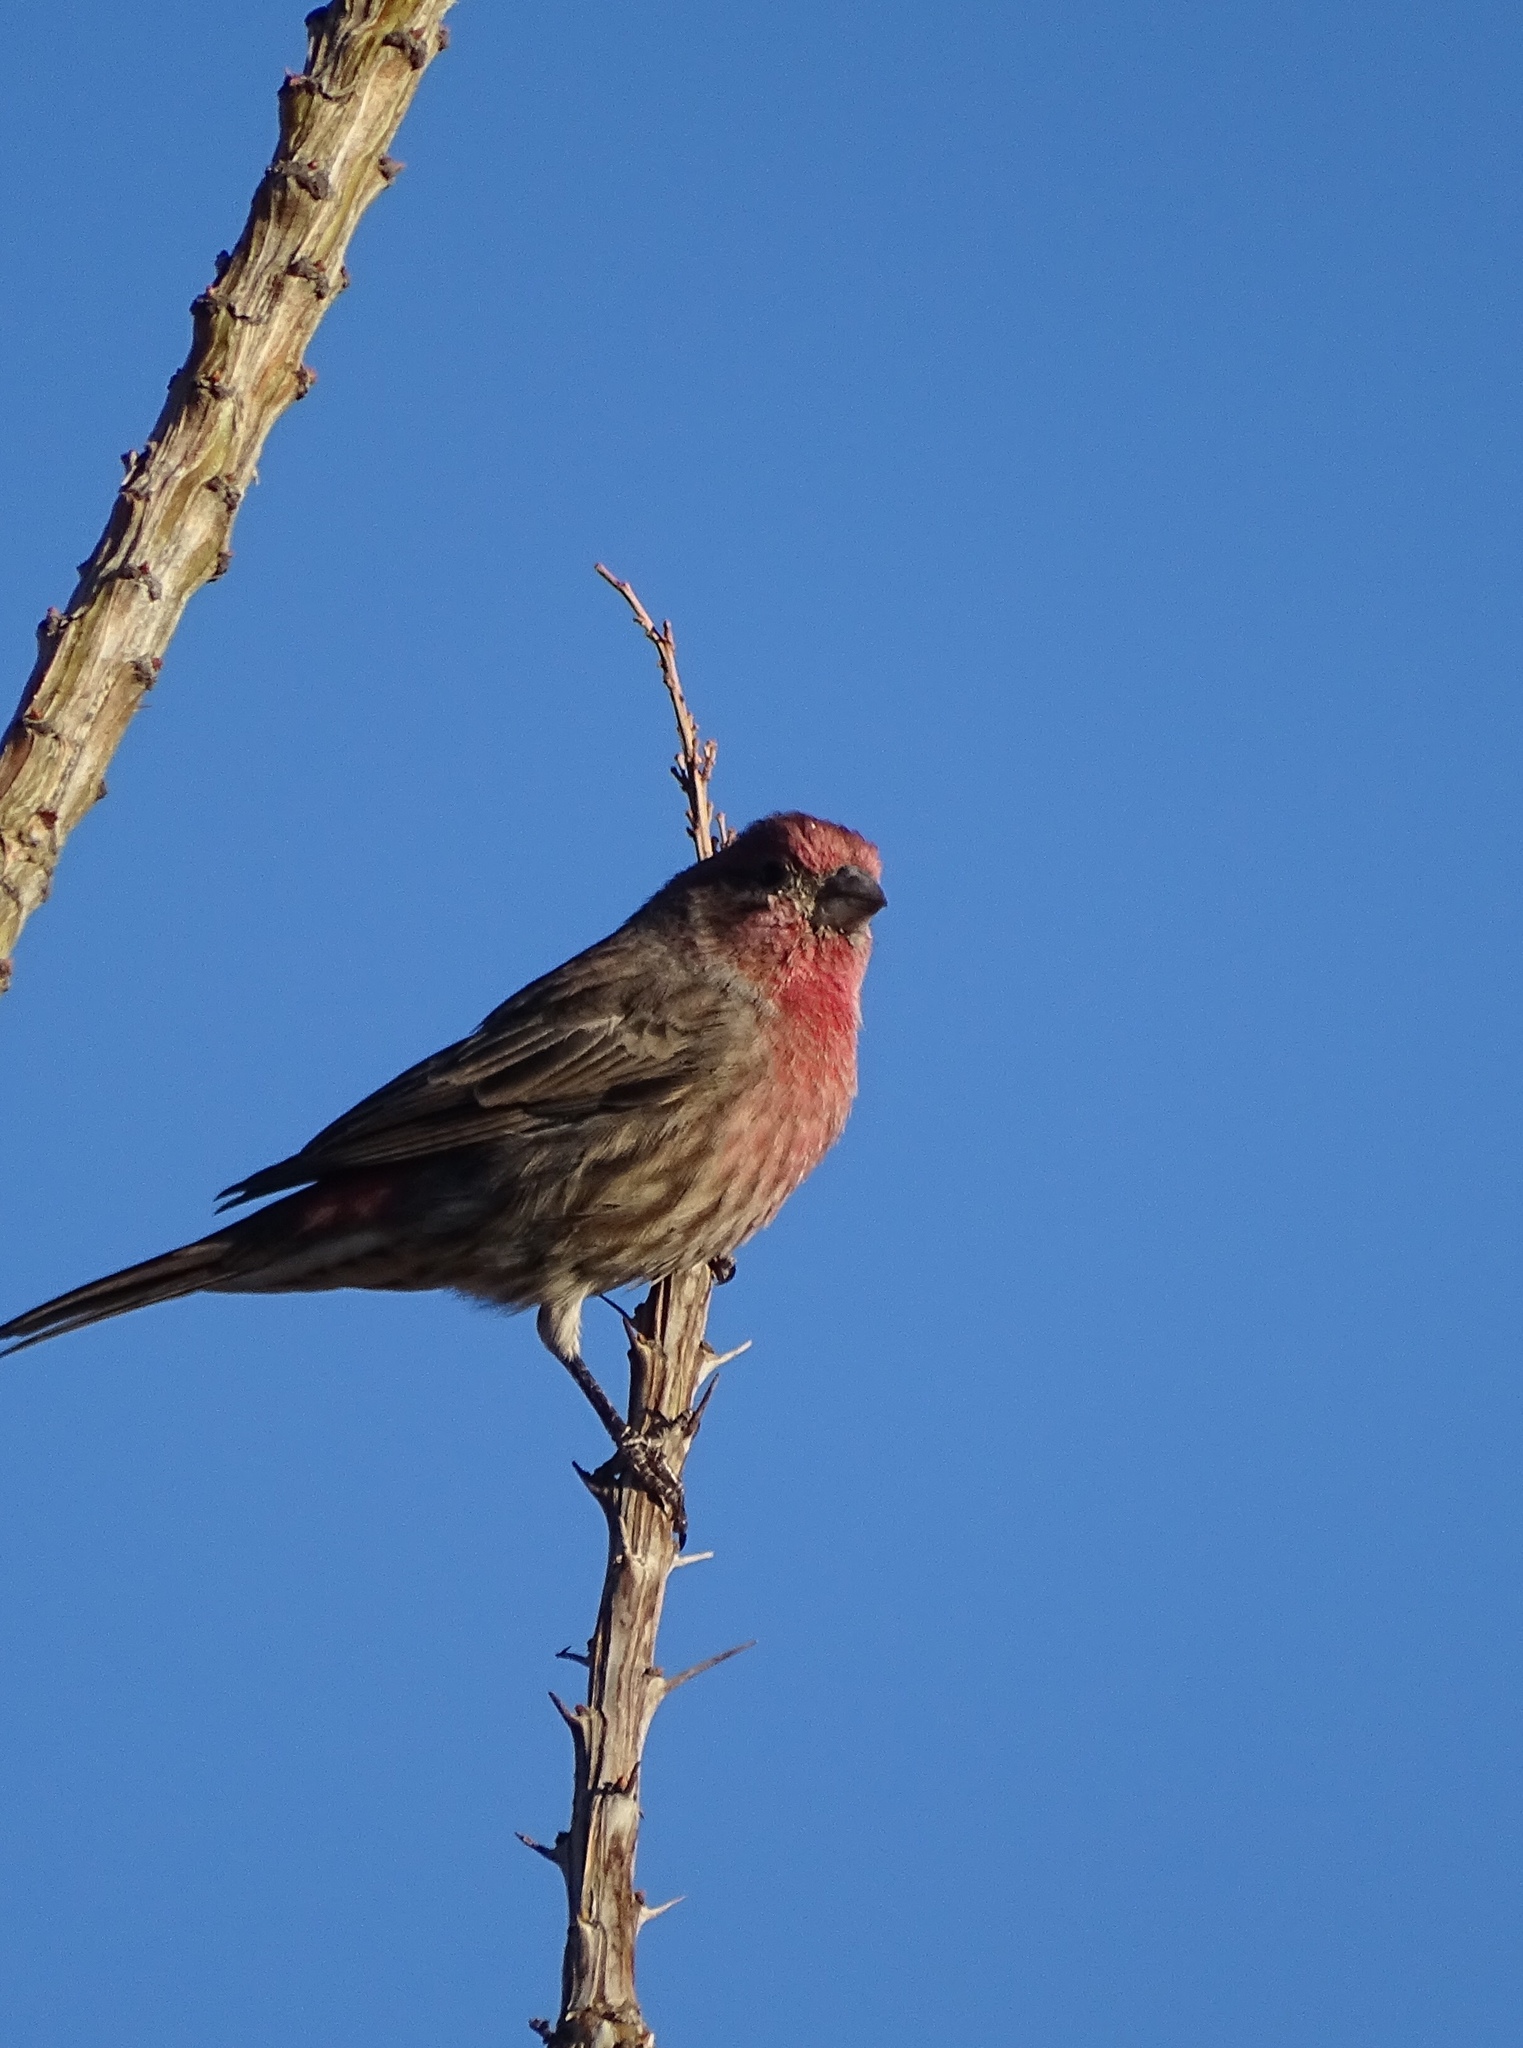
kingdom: Animalia
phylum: Chordata
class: Aves
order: Passeriformes
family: Fringillidae
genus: Haemorhous
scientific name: Haemorhous mexicanus
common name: House finch
